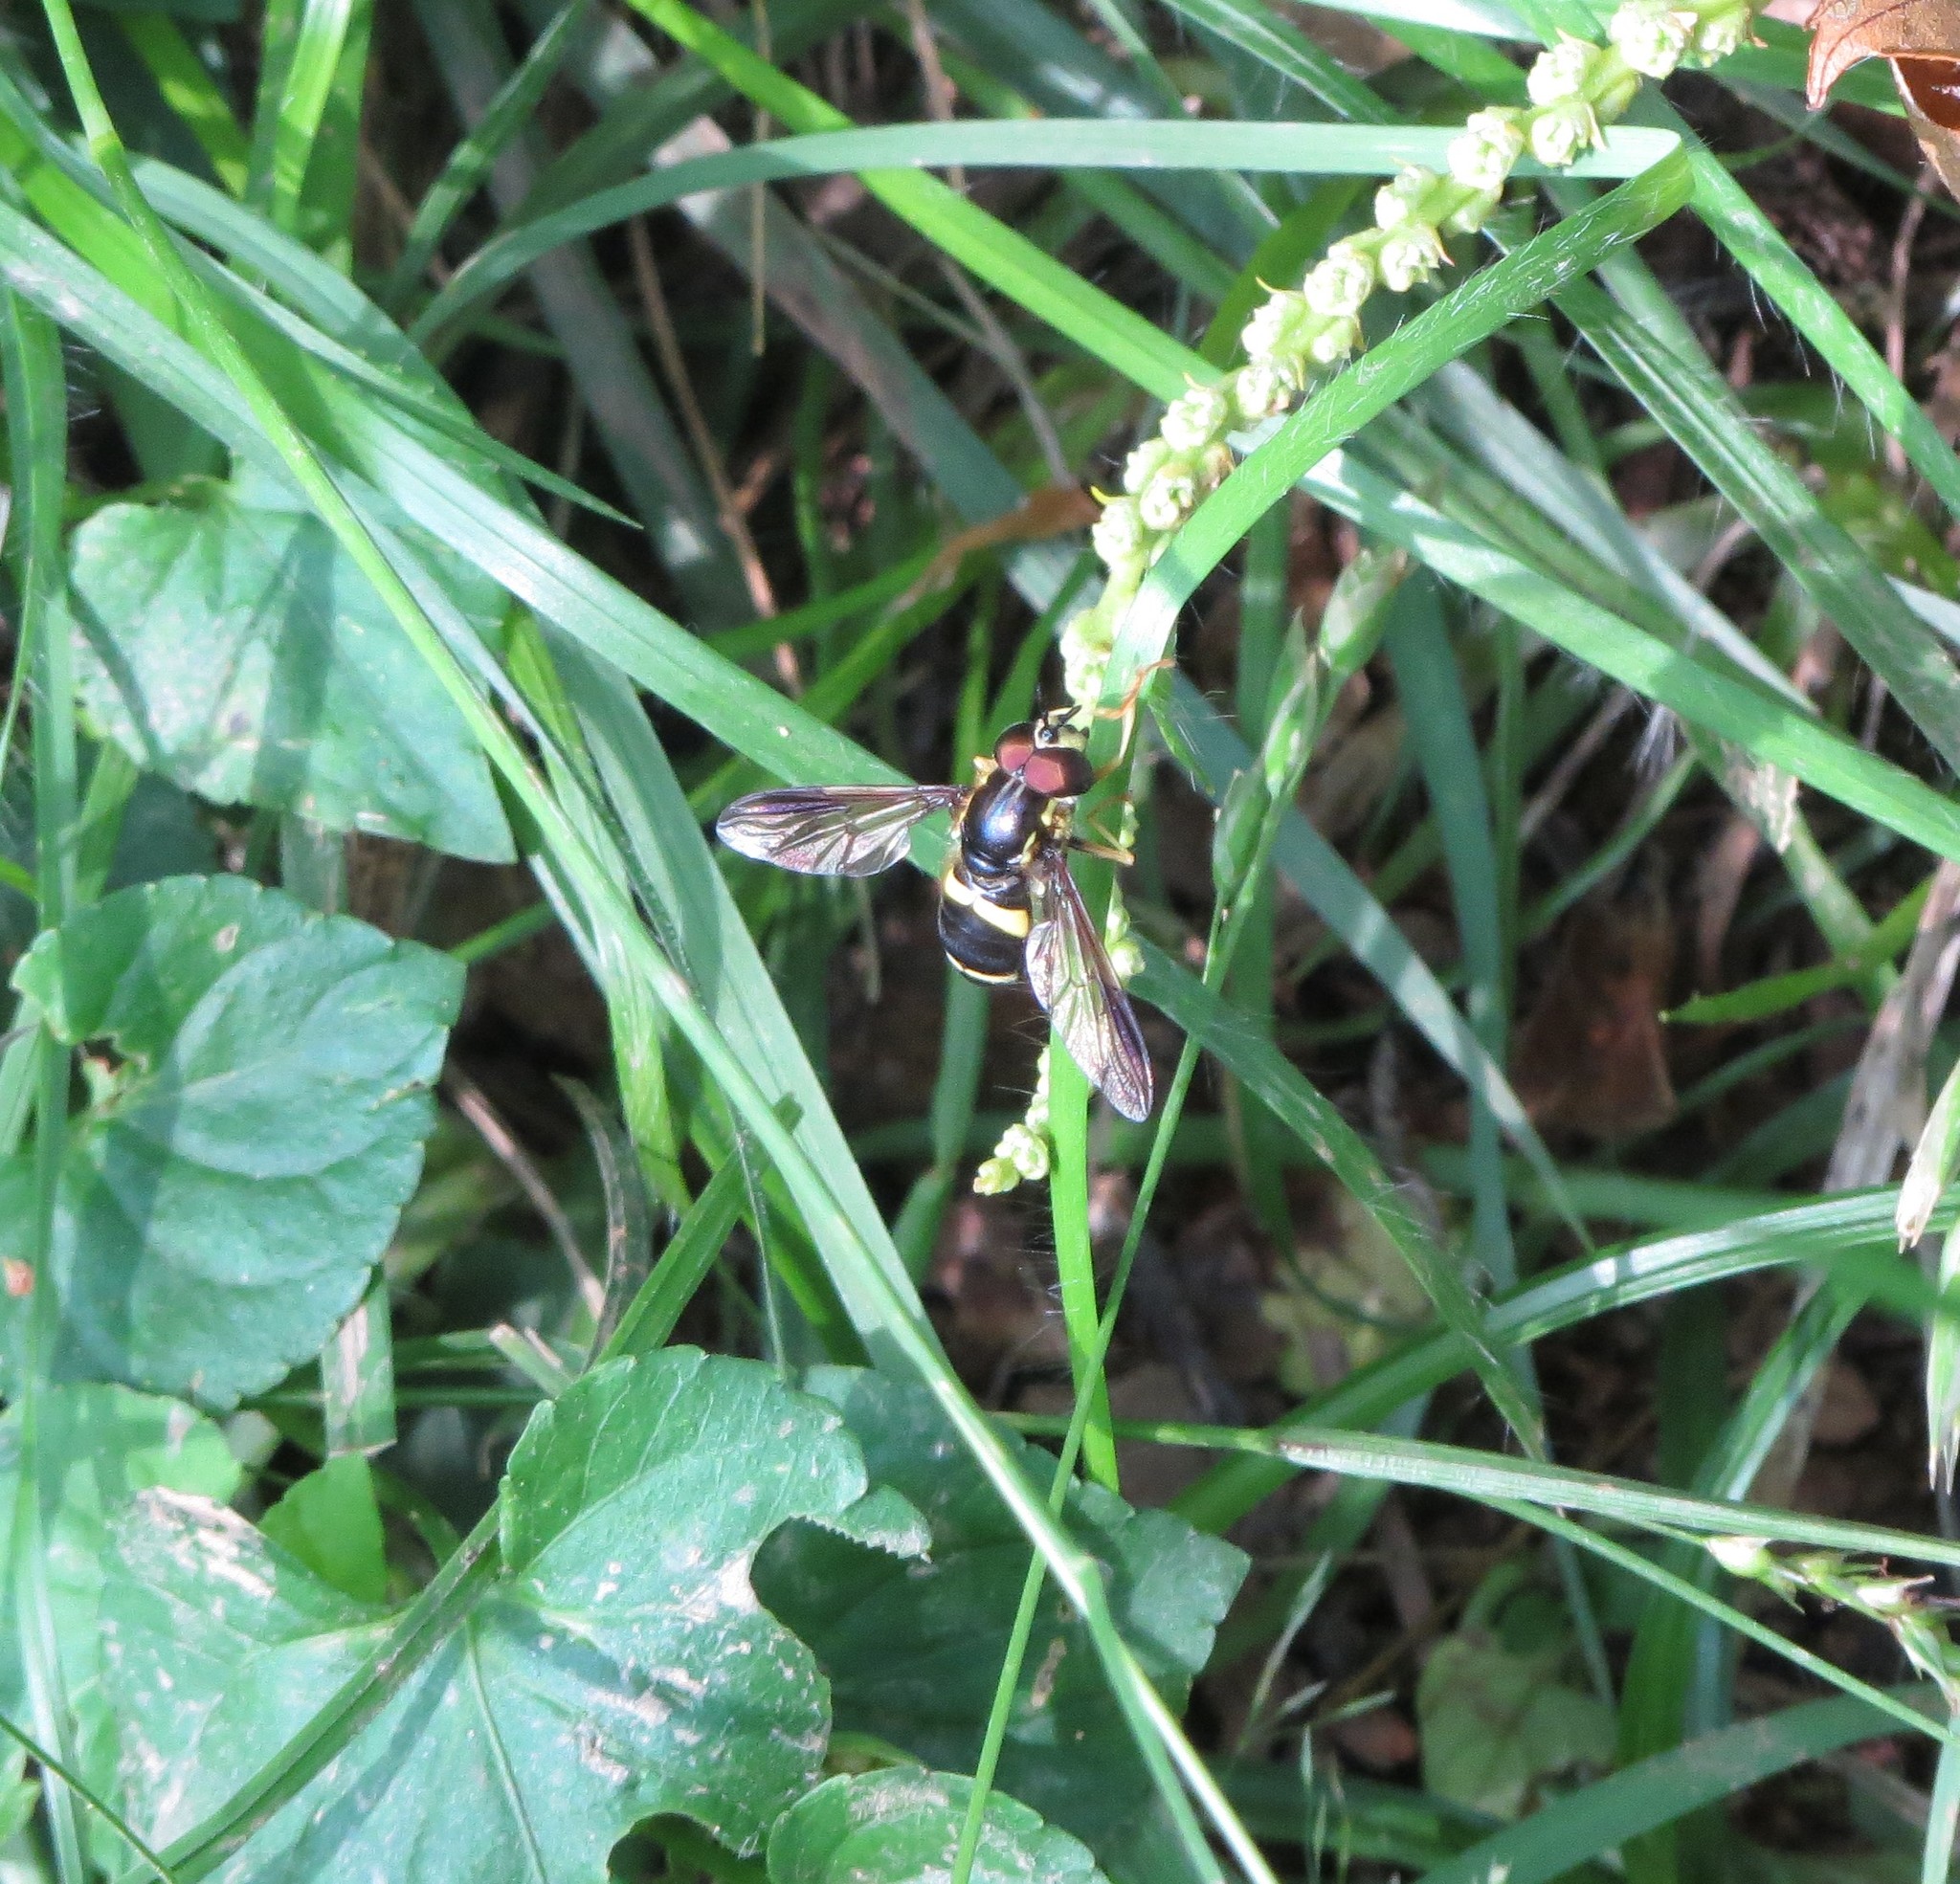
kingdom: Animalia
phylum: Arthropoda
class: Insecta
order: Diptera
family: Syrphidae
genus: Chrysotoxum
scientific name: Chrysotoxum bicincta
